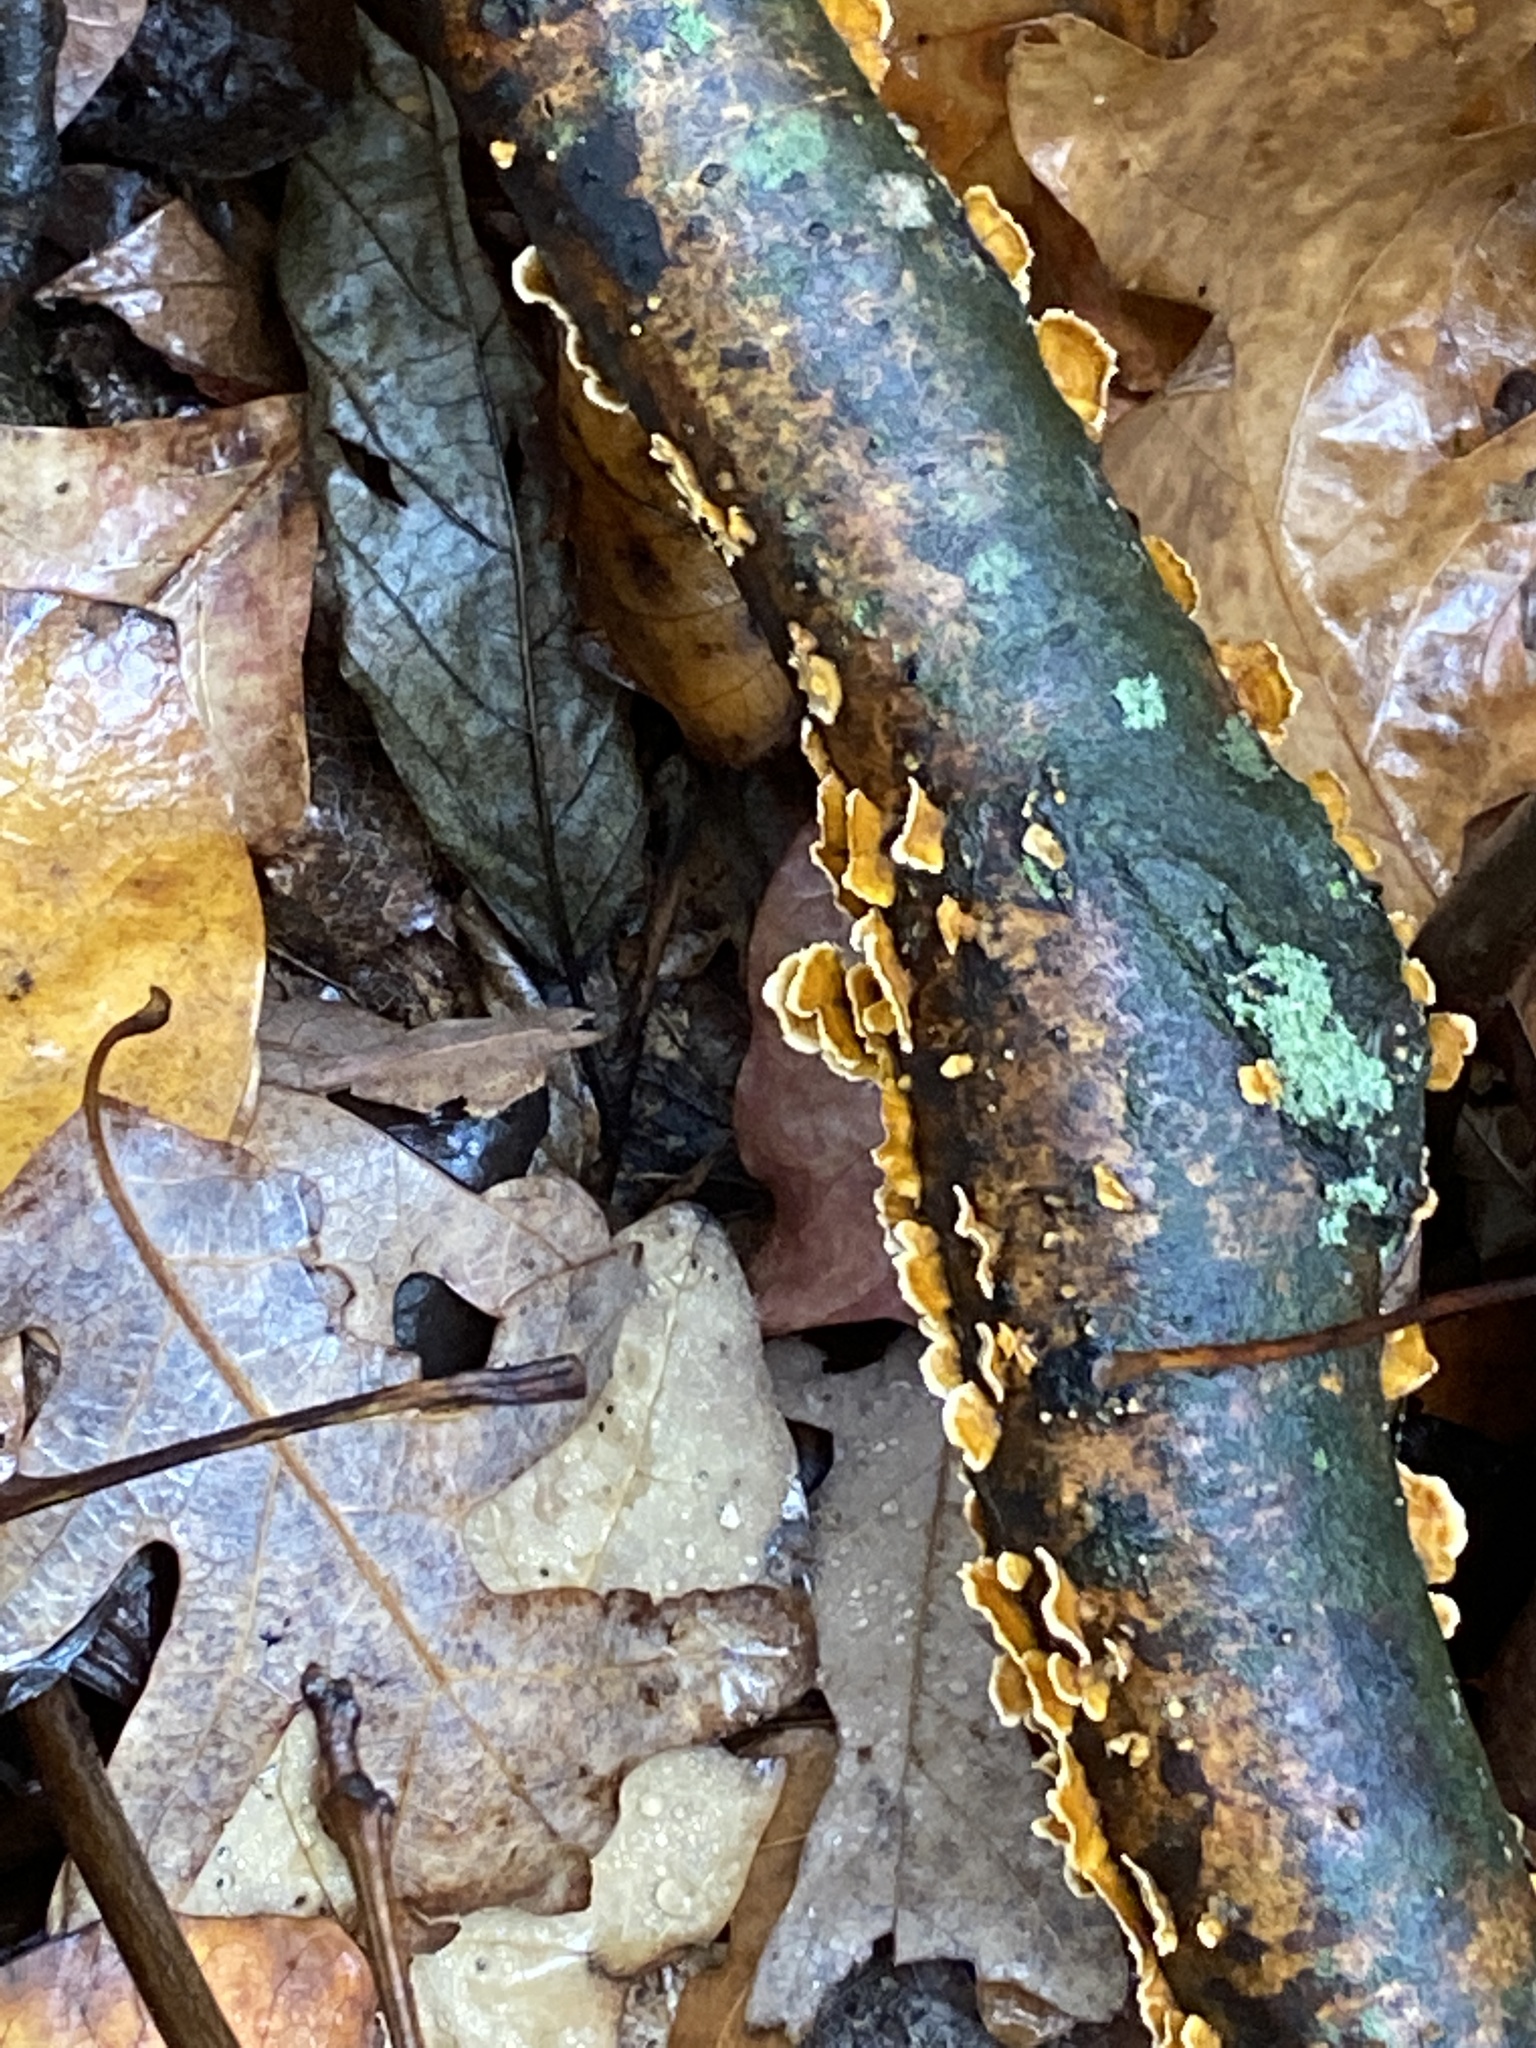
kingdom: Fungi
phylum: Basidiomycota
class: Agaricomycetes
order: Russulales
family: Stereaceae
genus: Stereum
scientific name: Stereum complicatum
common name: Crowded parchment
